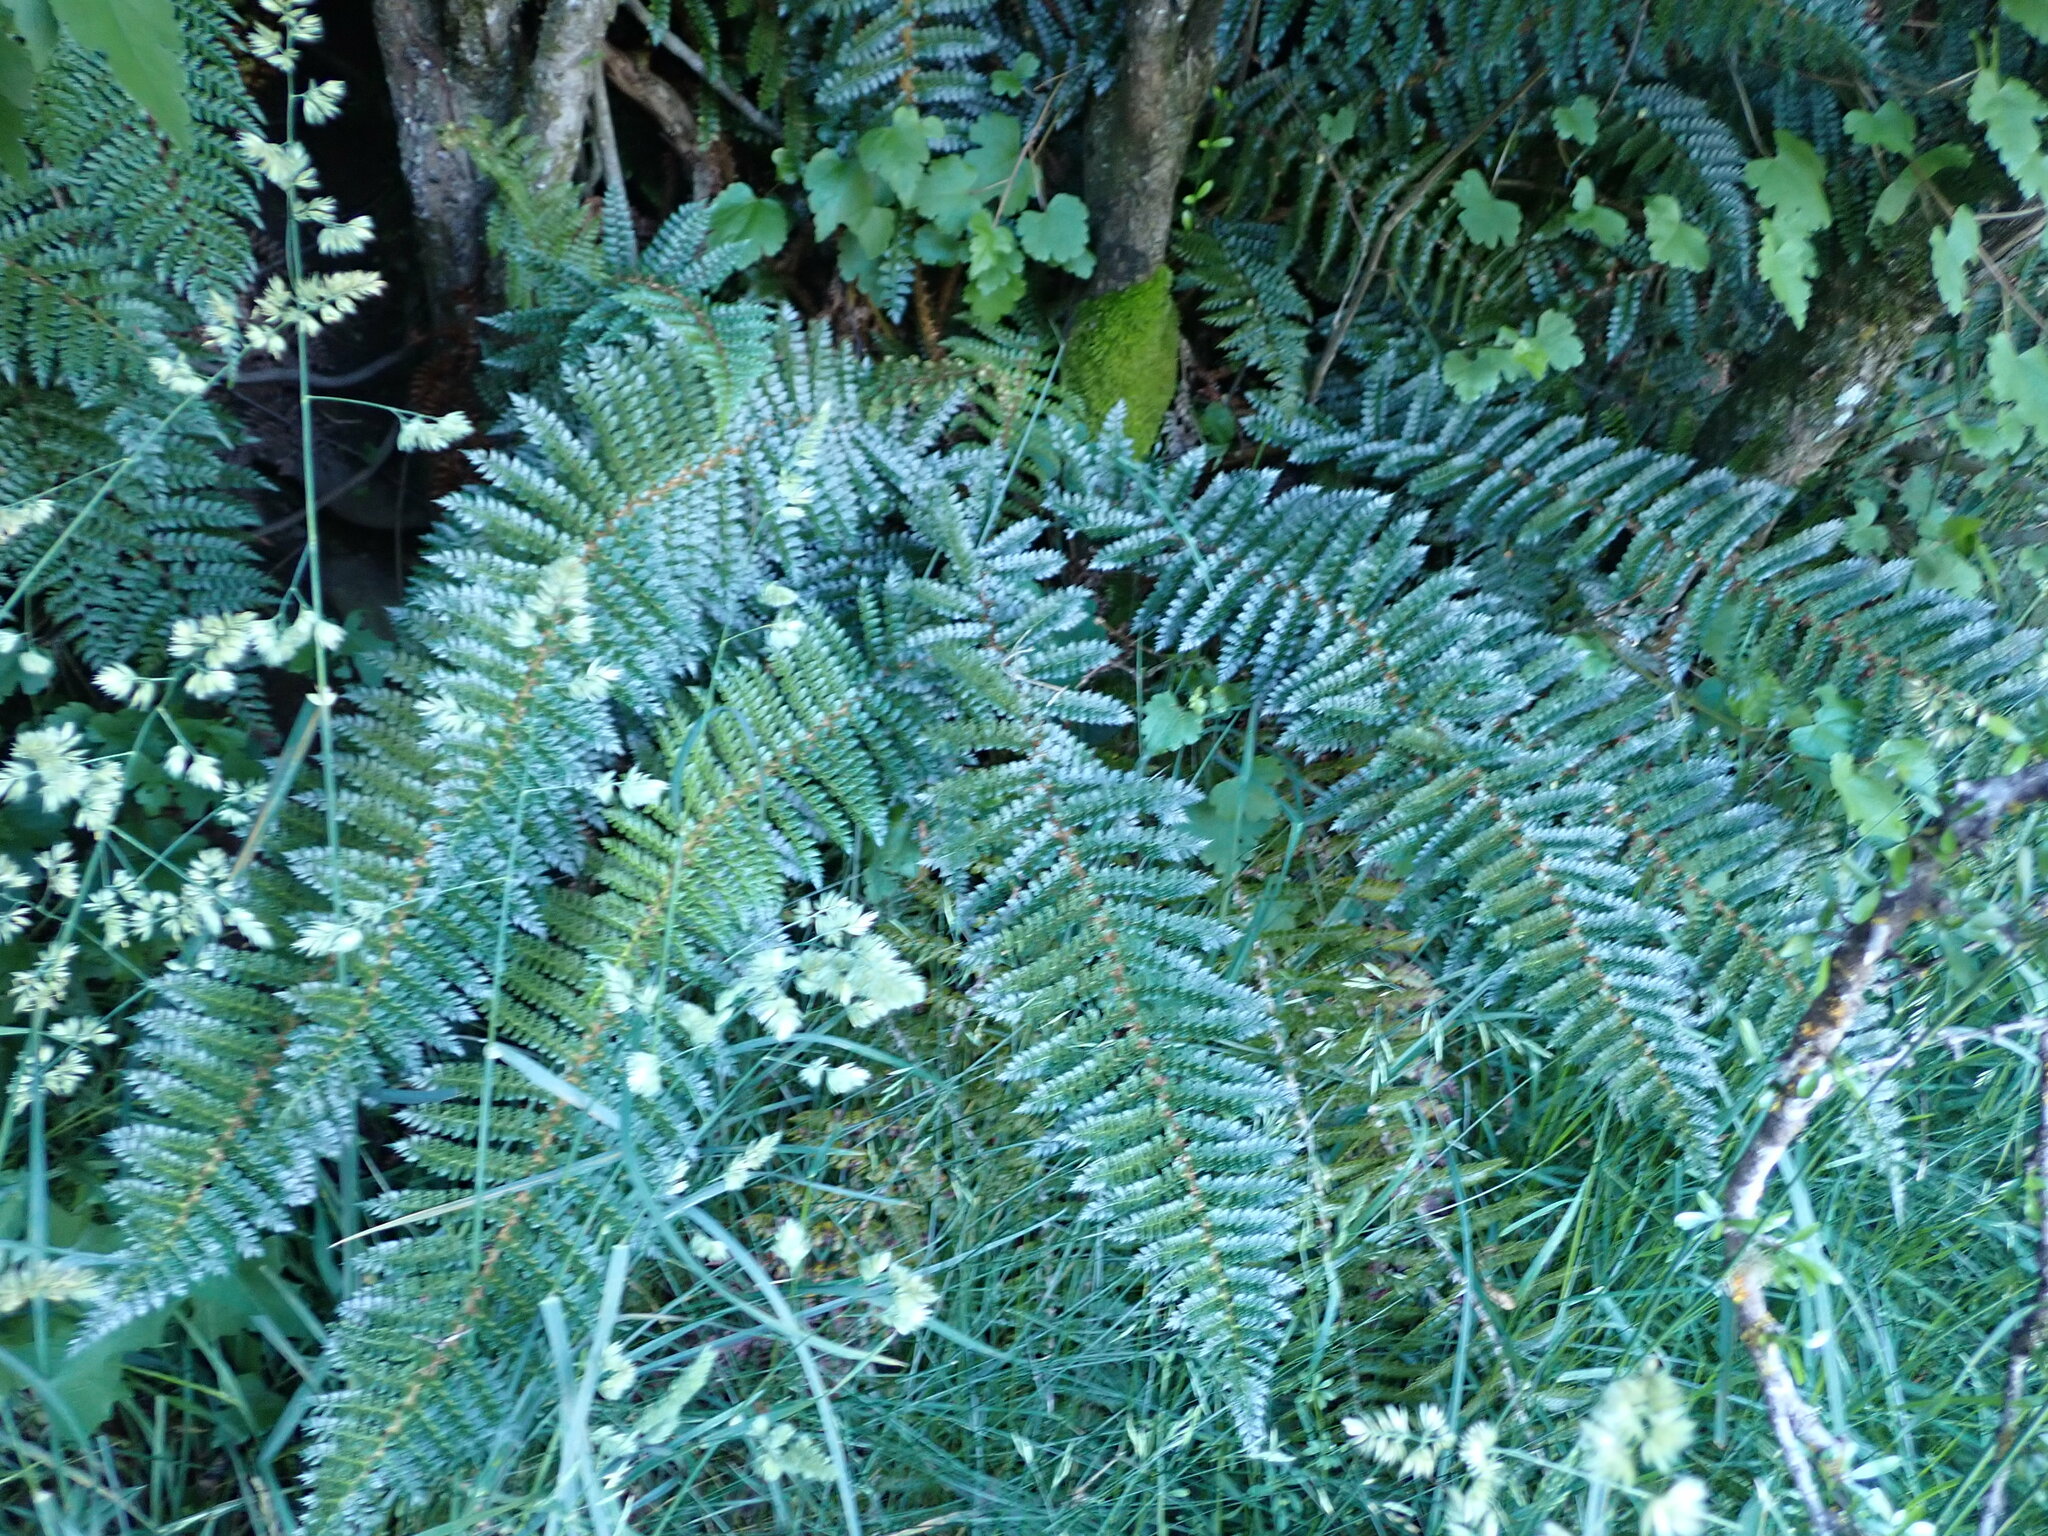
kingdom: Plantae
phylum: Tracheophyta
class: Polypodiopsida
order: Polypodiales
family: Dryopteridaceae
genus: Polystichum
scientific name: Polystichum vestitum
